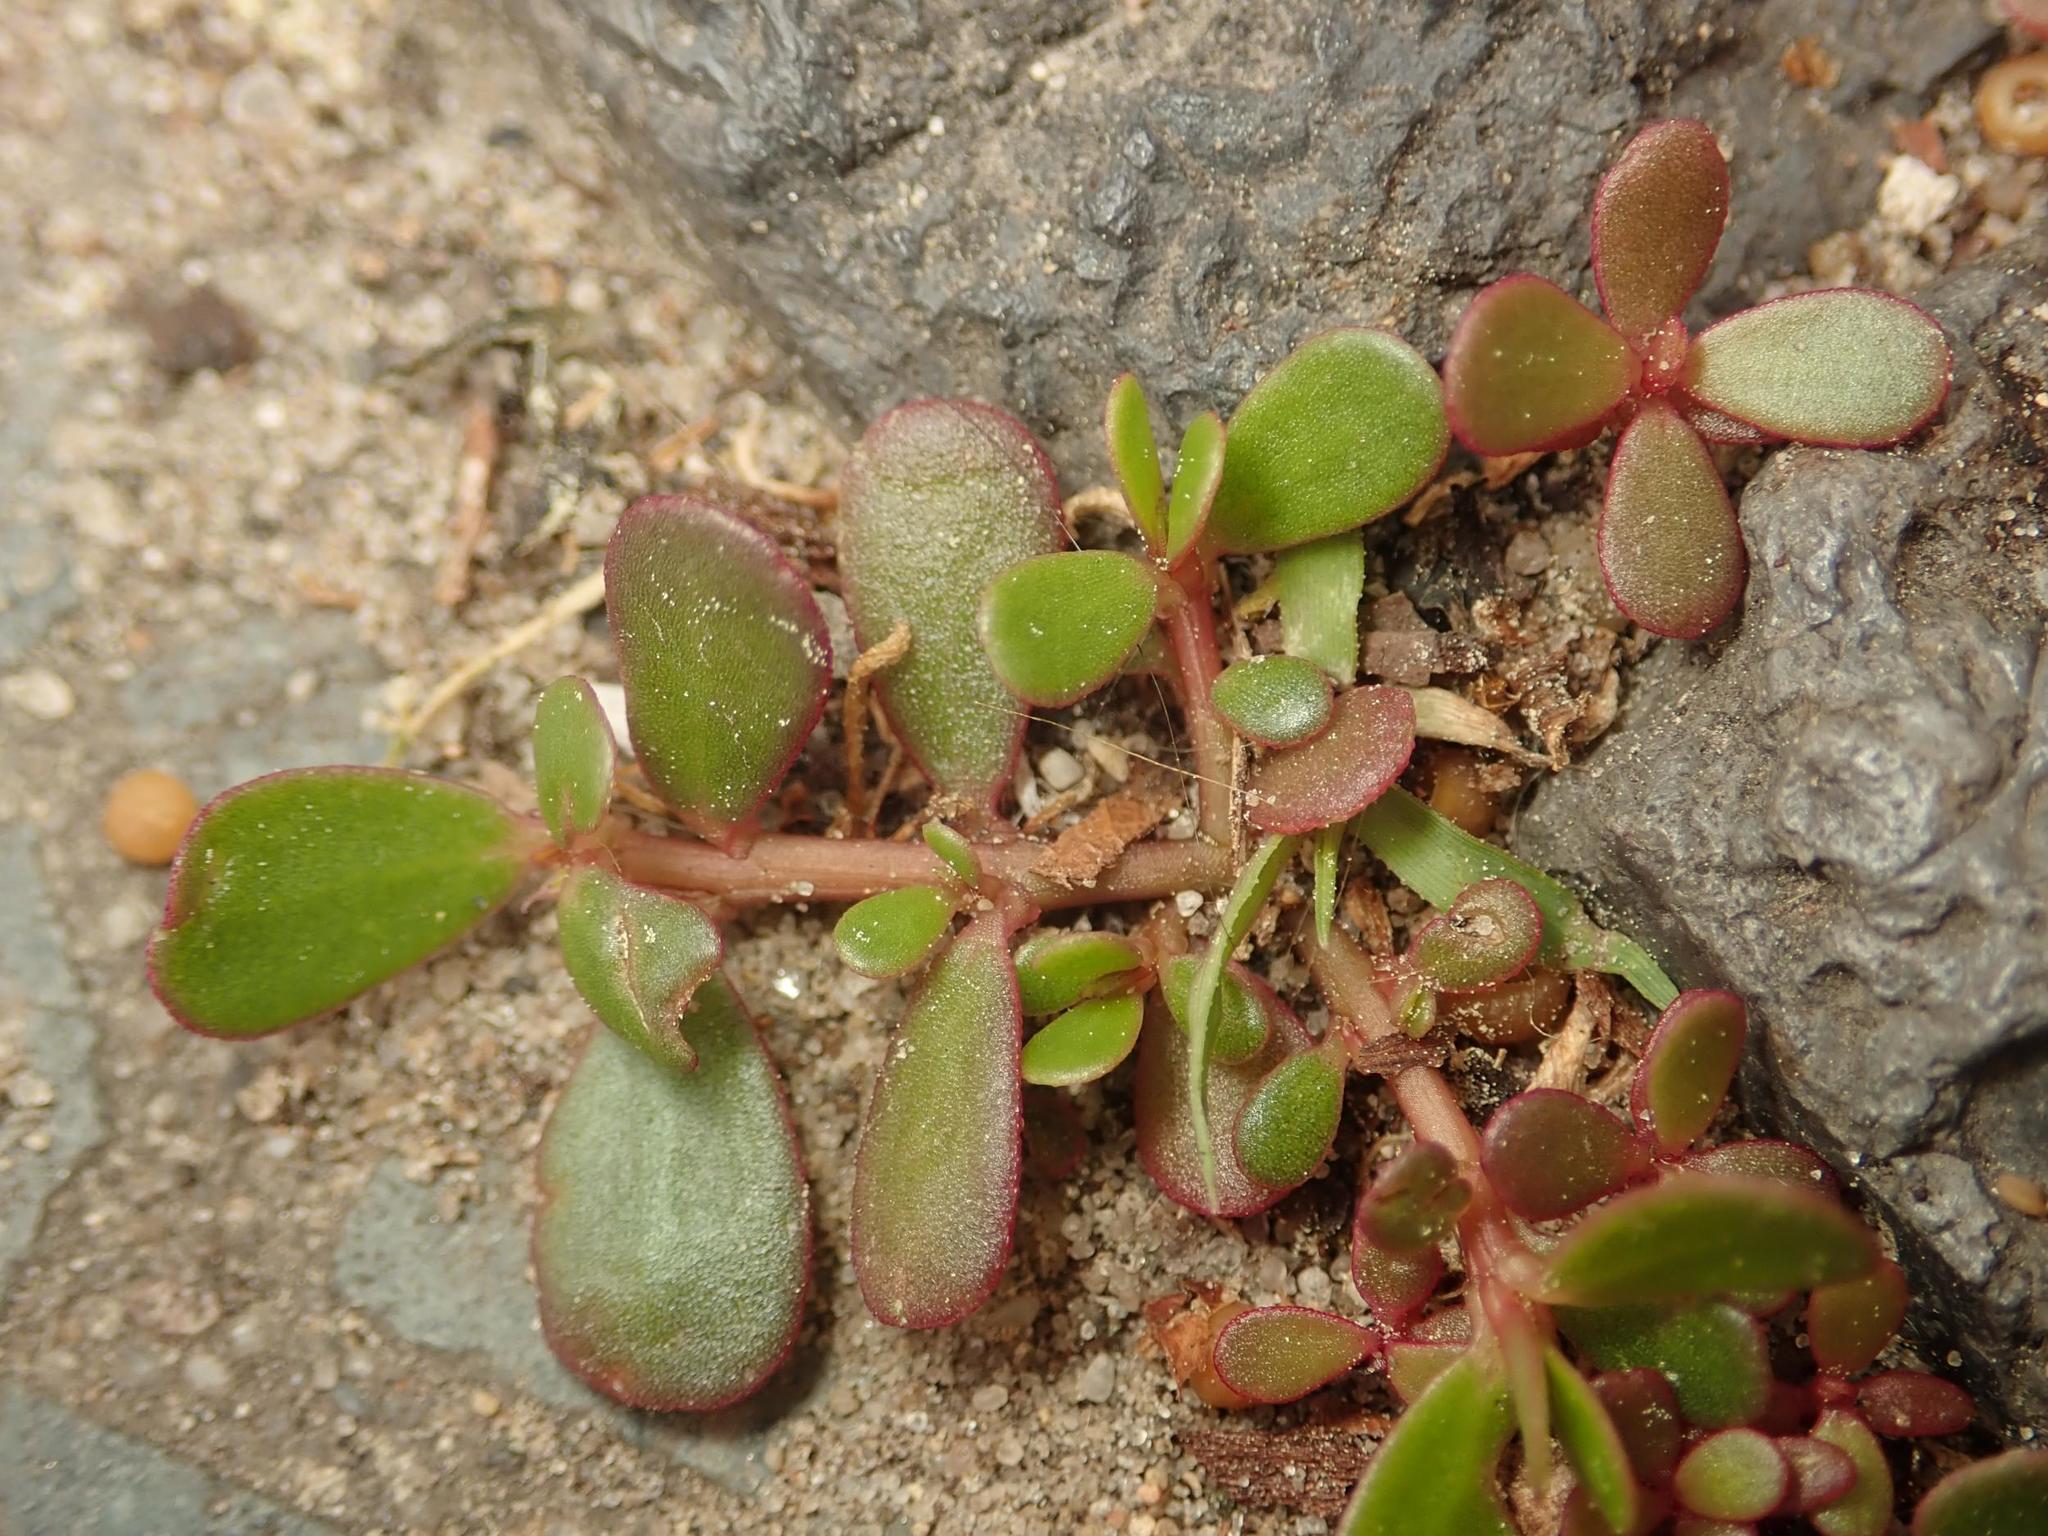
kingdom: Plantae
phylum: Tracheophyta
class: Magnoliopsida
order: Caryophyllales
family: Portulacaceae
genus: Portulaca
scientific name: Portulaca oleracea
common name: Common purslane
